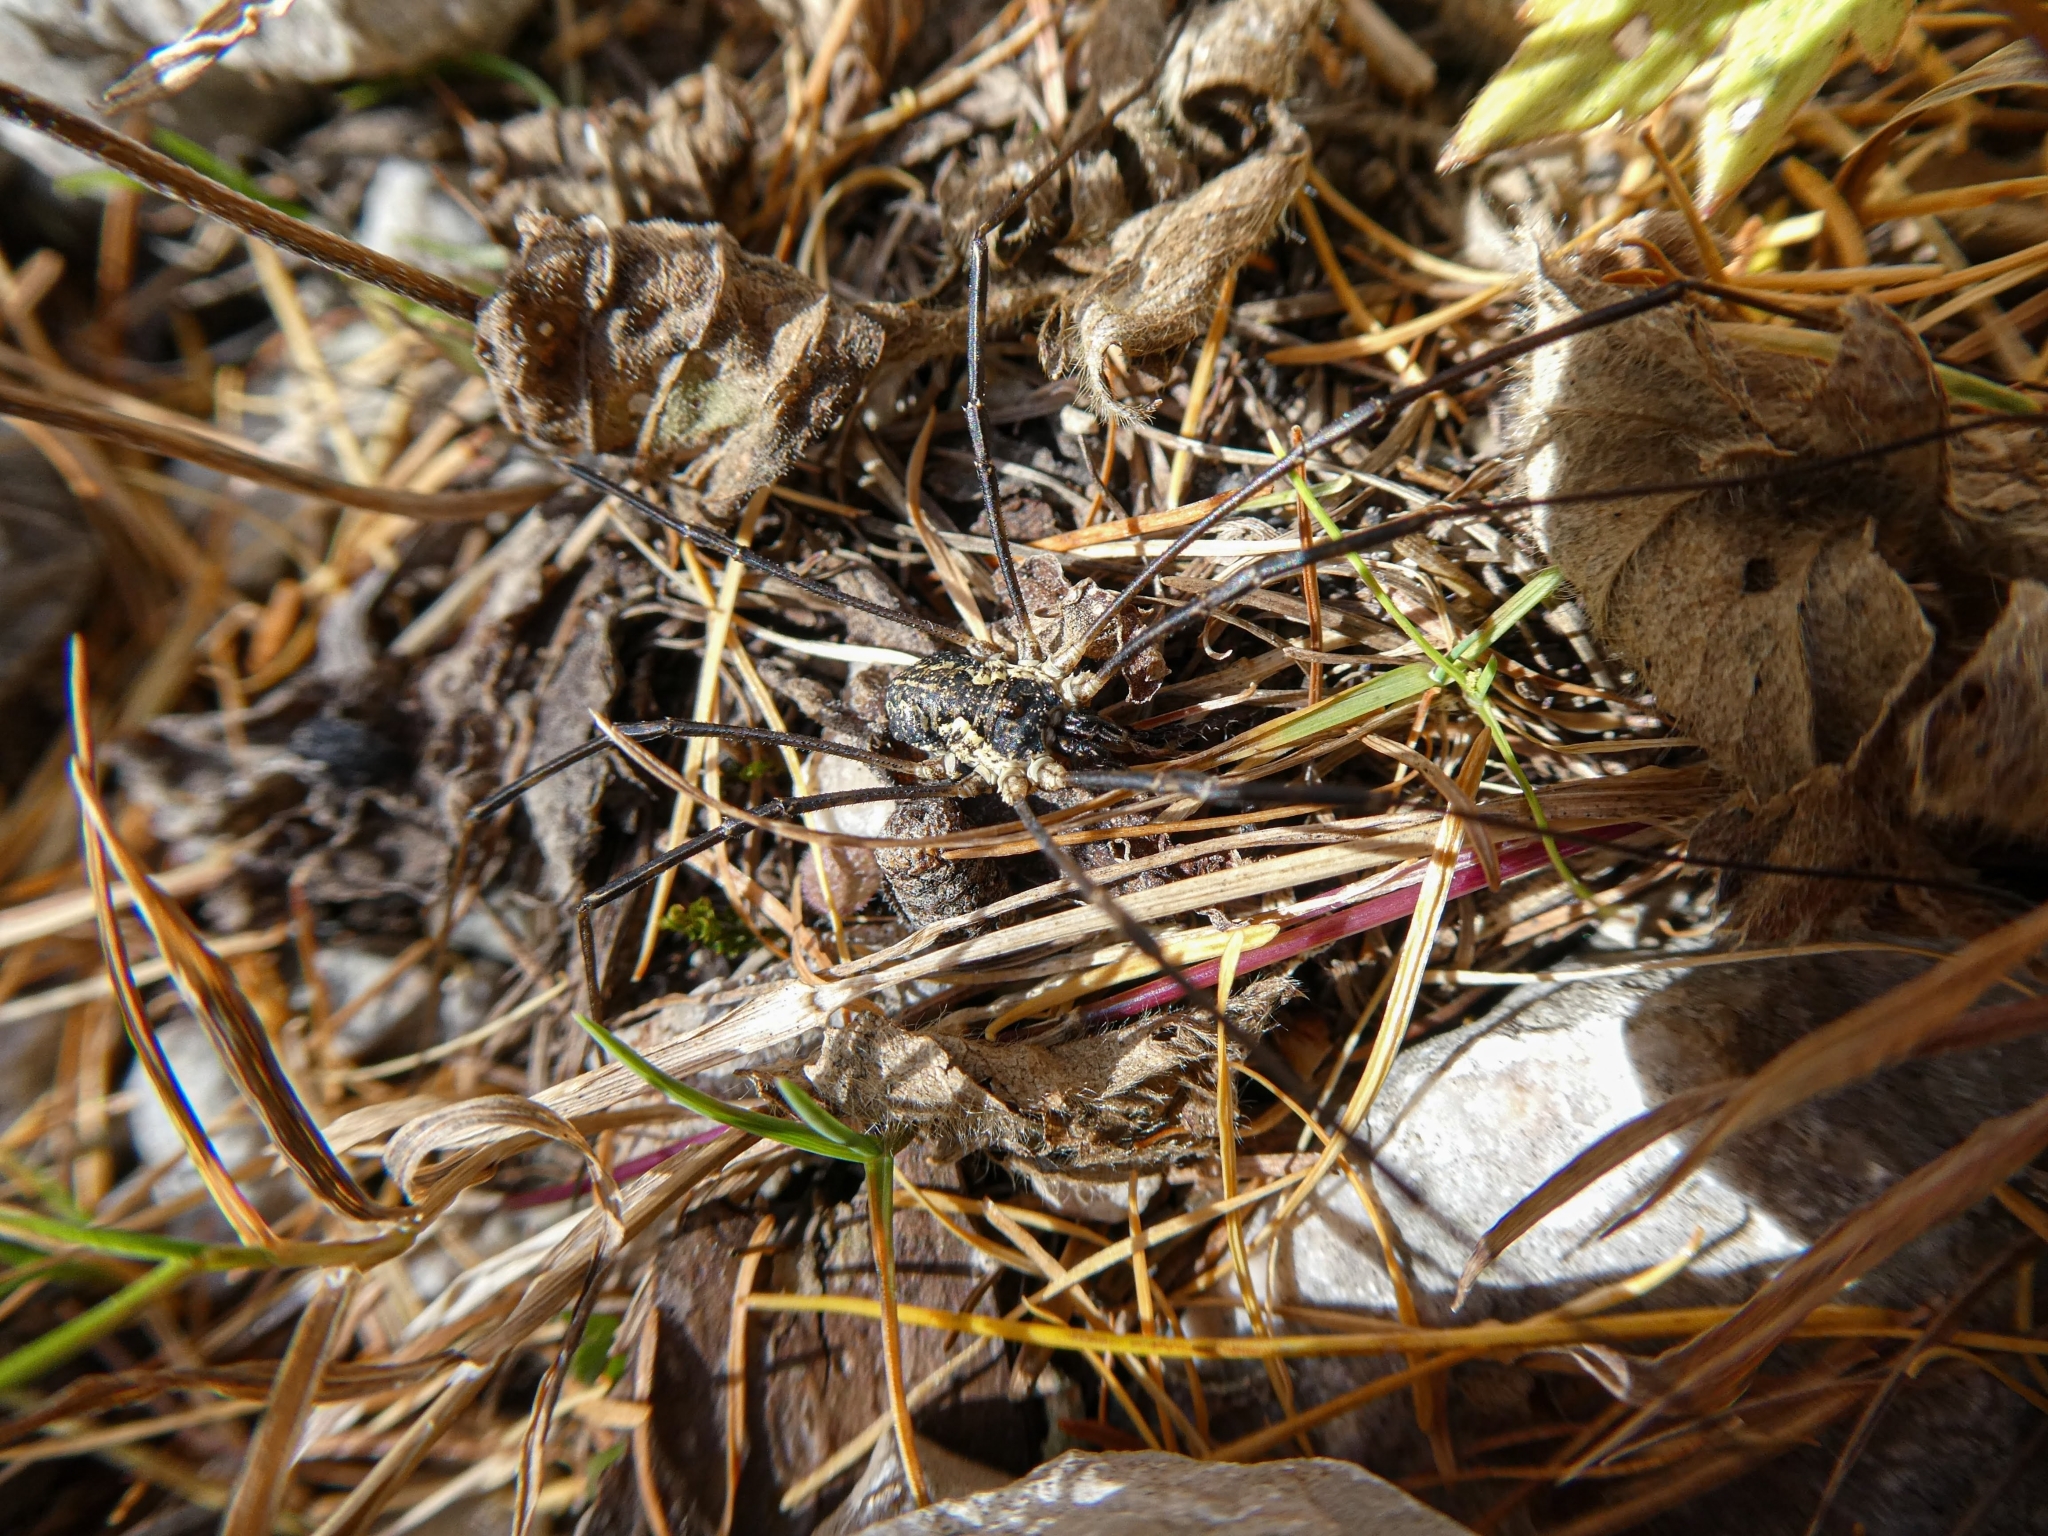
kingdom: Animalia
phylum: Arthropoda
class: Arachnida
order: Opiliones
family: Phalangiidae
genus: Mitopus
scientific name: Mitopus morio
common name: Saddleback harvestman
